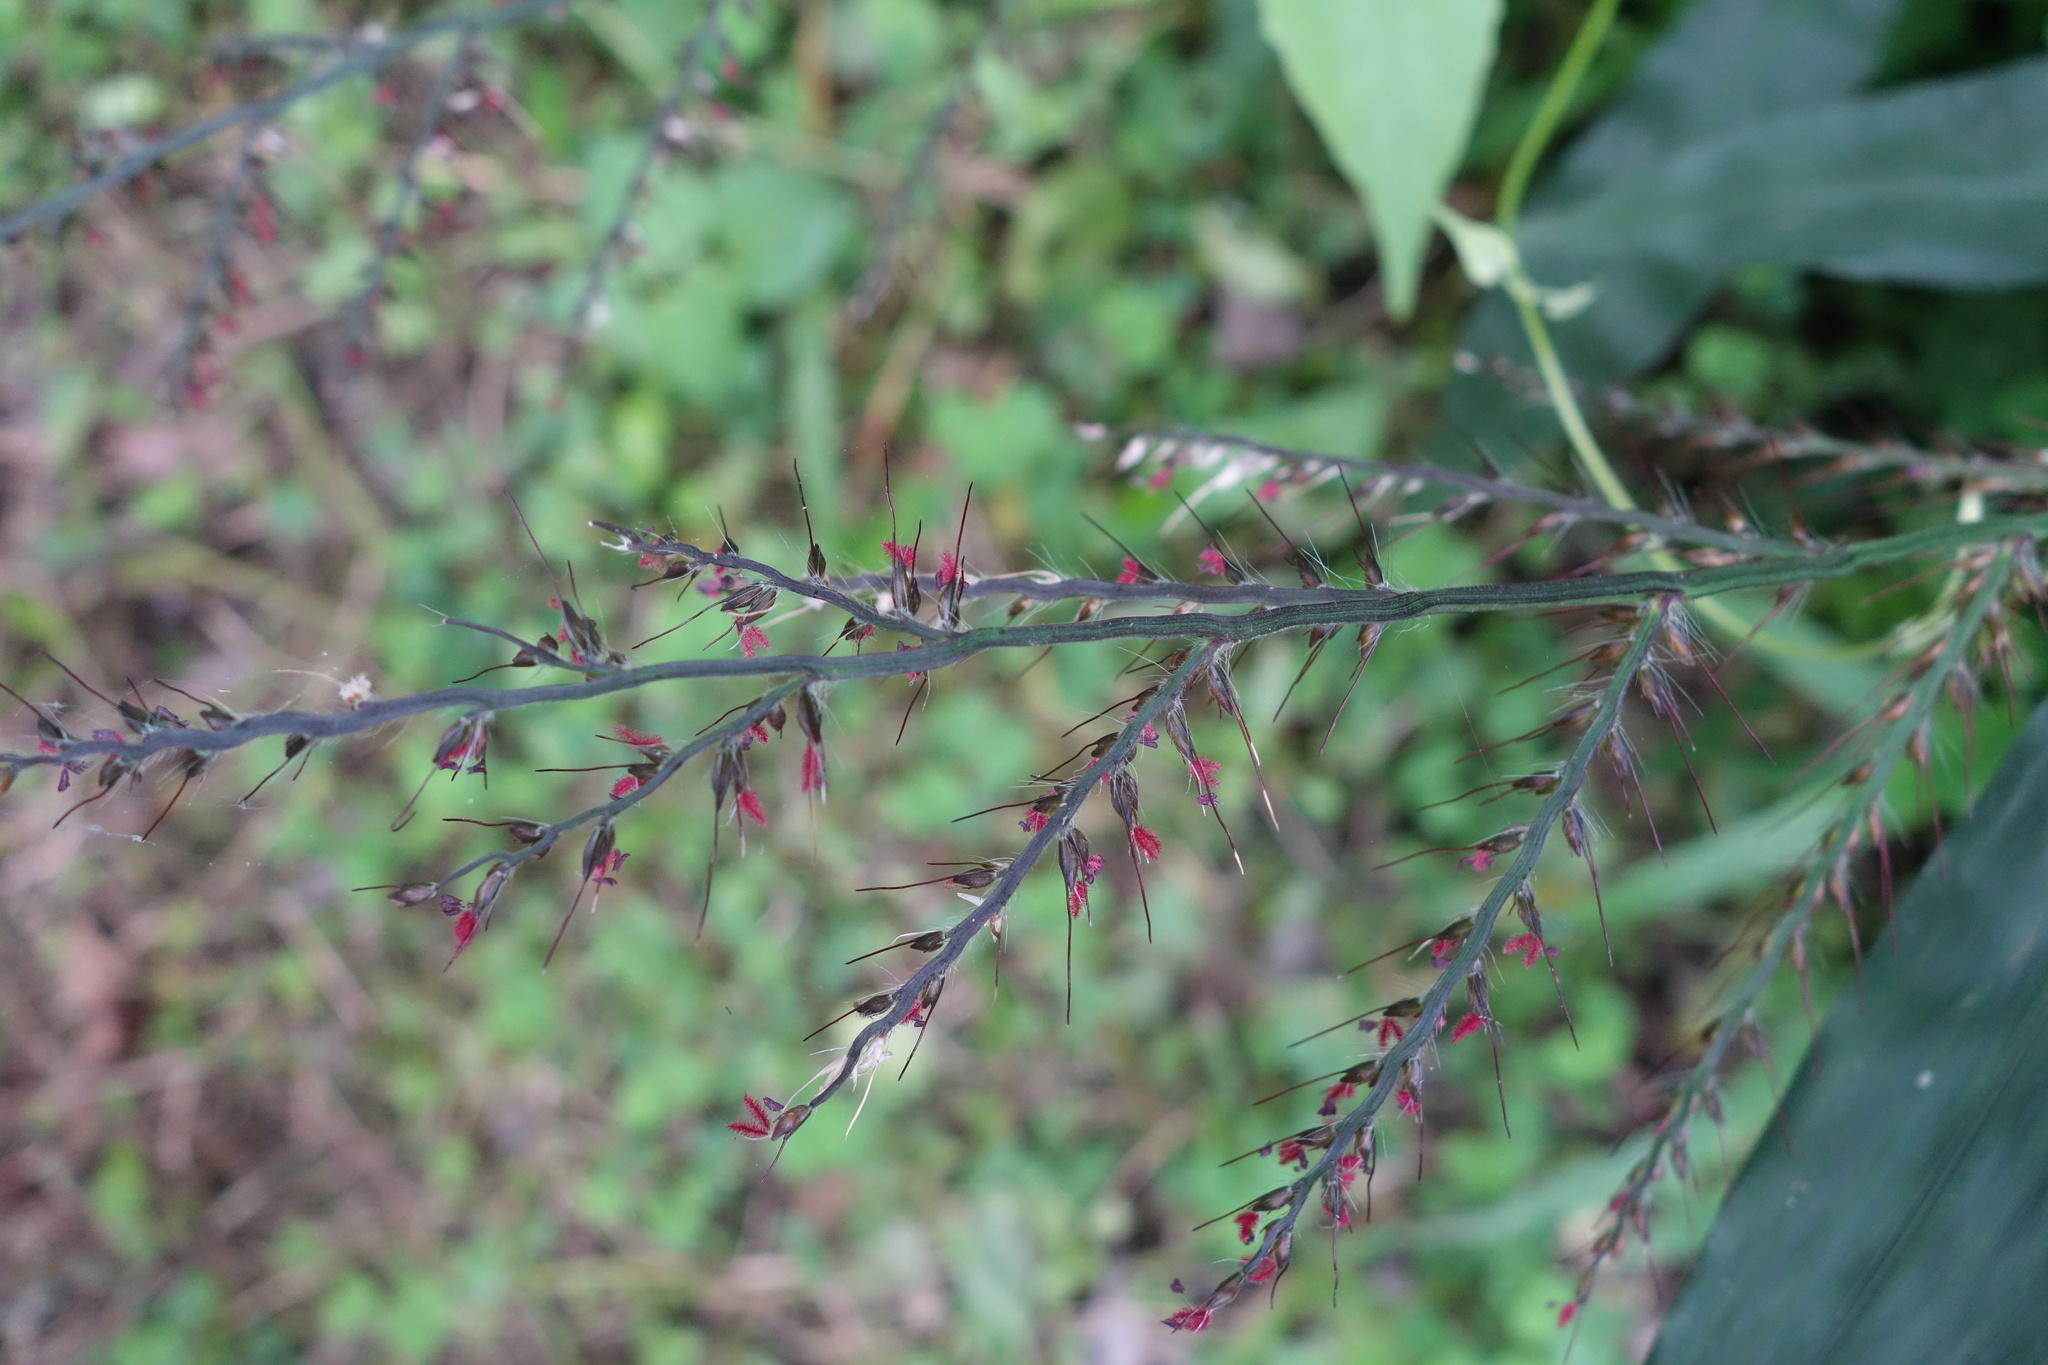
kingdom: Plantae
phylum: Tracheophyta
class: Liliopsida
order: Poales
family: Poaceae
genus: Oplismenus
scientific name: Oplismenus compositus
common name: Running mountain grass
